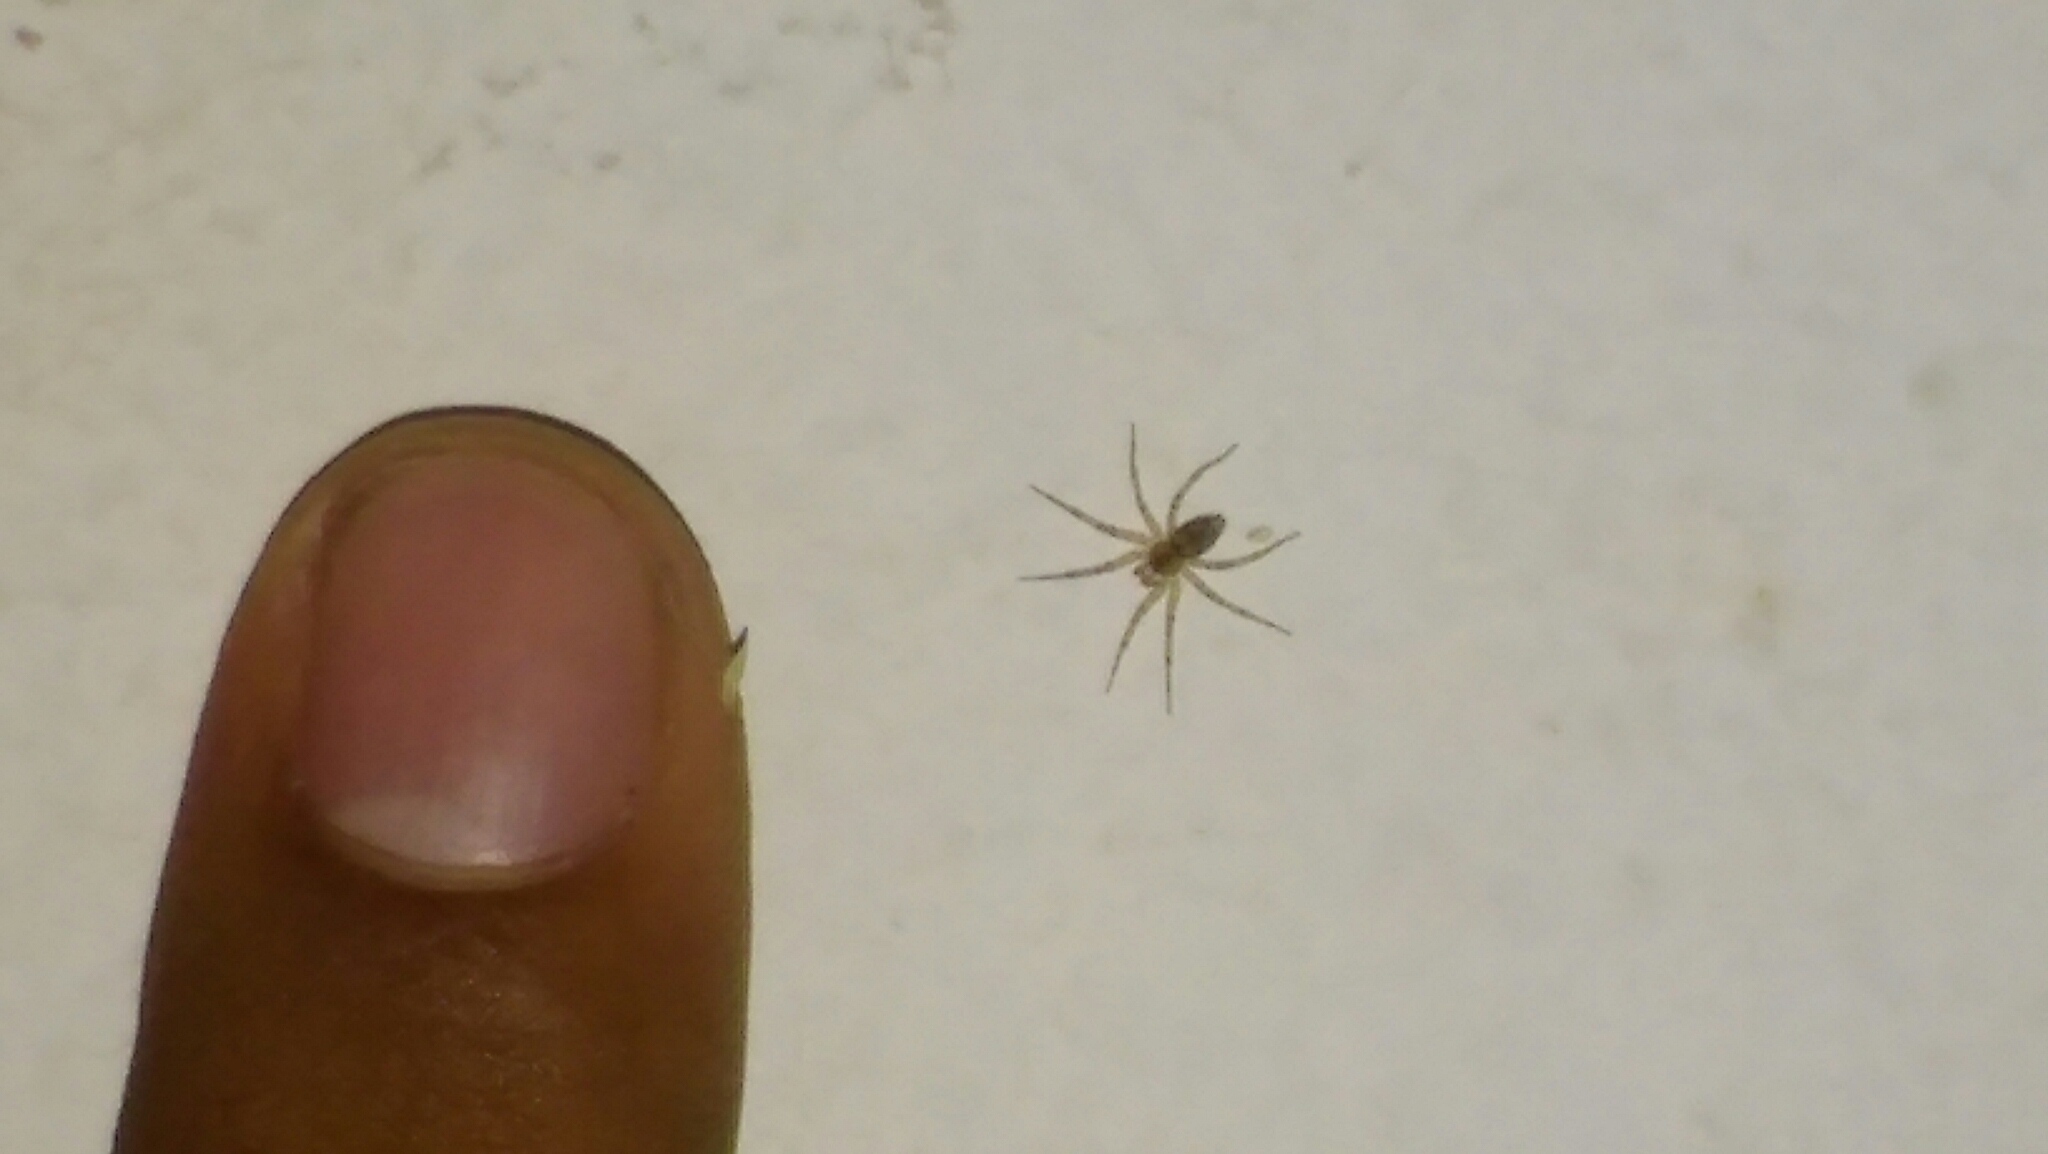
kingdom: Animalia
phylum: Arthropoda
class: Arachnida
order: Araneae
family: Oecobiidae
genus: Oecobius
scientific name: Oecobius navus
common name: Flatmesh weaver
